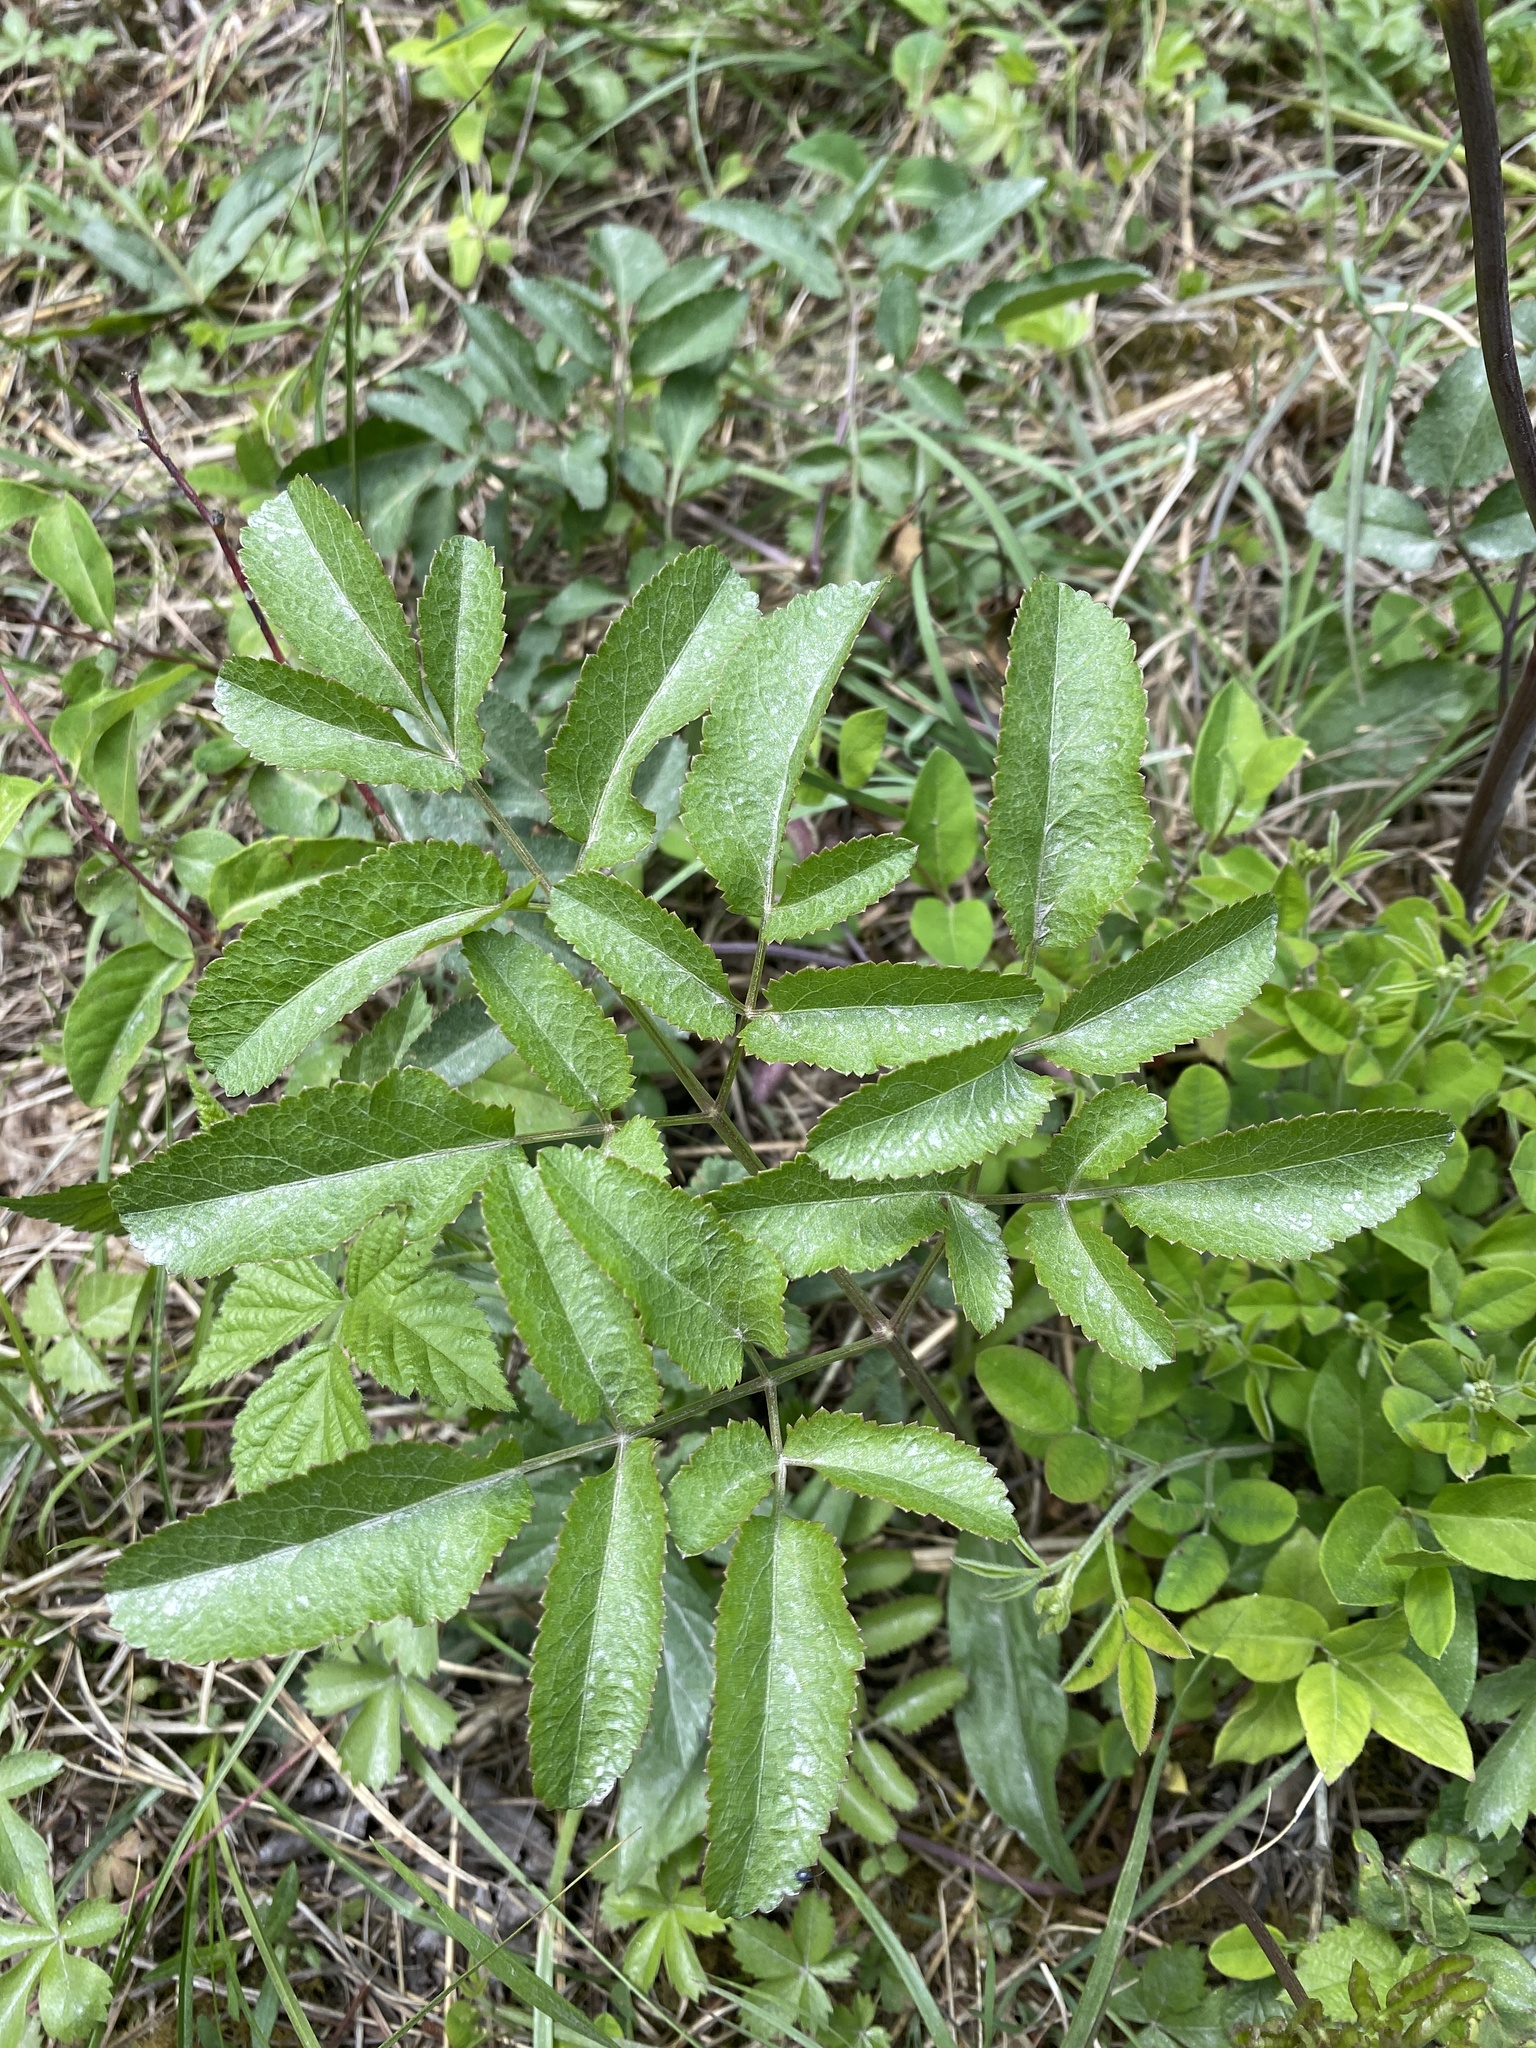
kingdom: Plantae
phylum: Tracheophyta
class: Magnoliopsida
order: Apiales
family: Apiaceae
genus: Angelica
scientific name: Angelica venenosa
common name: Hairy angelica
